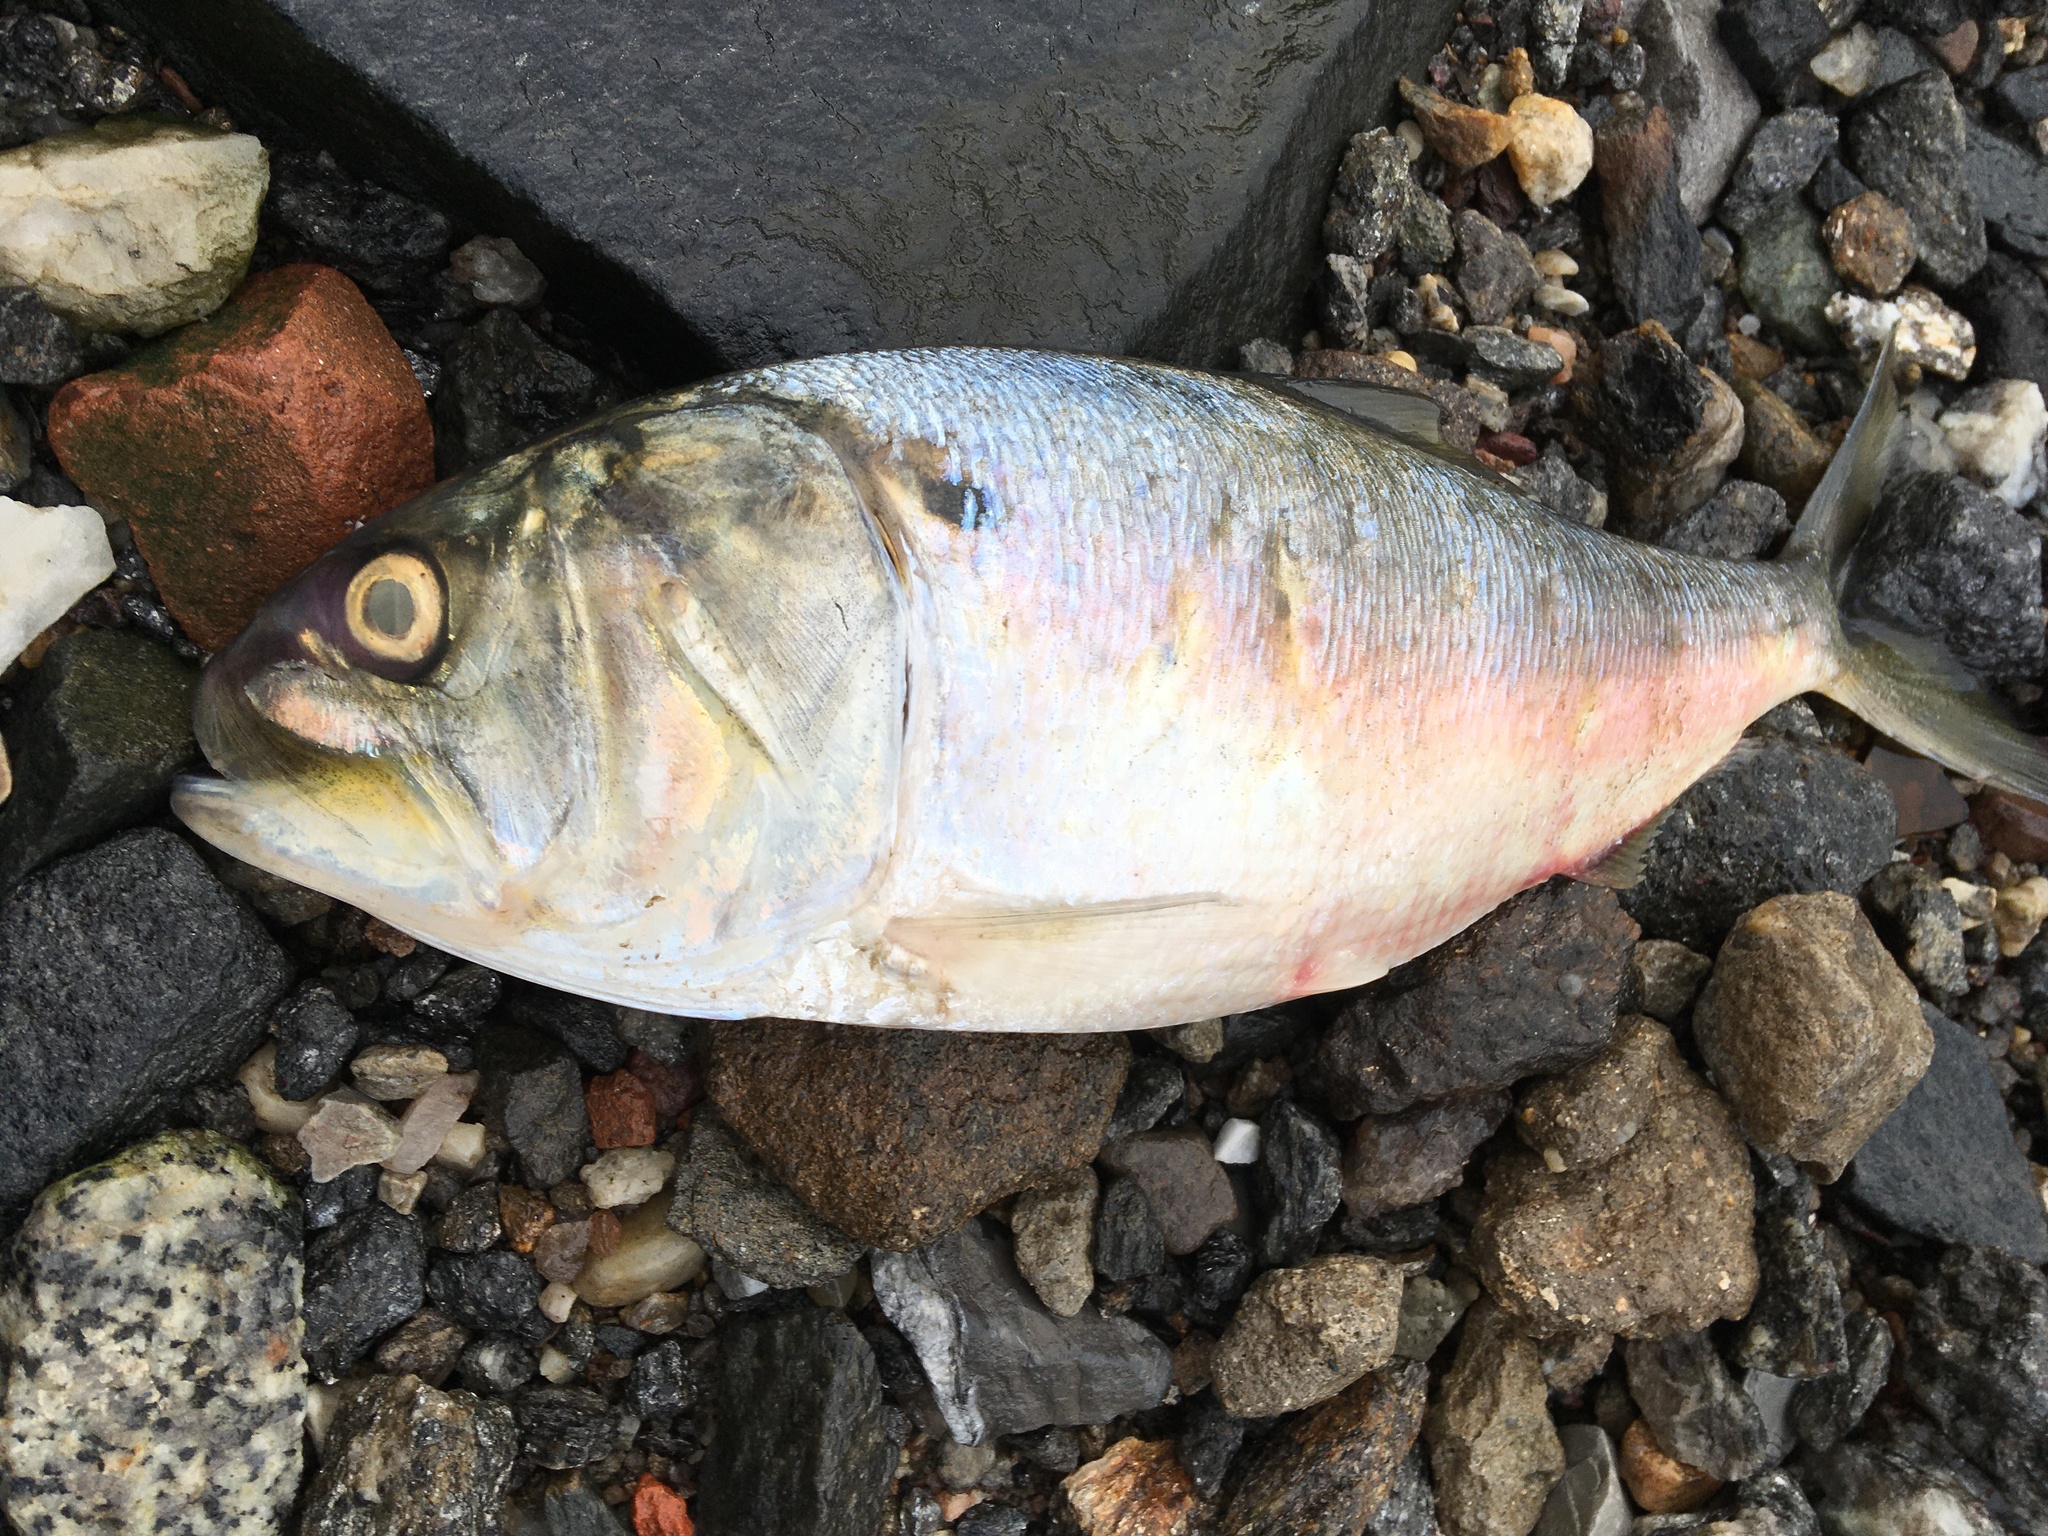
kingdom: Animalia
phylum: Chordata
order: Clupeiformes
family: Clupeidae
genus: Brevoortia
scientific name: Brevoortia tyrannus
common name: Atlantic menhaden
